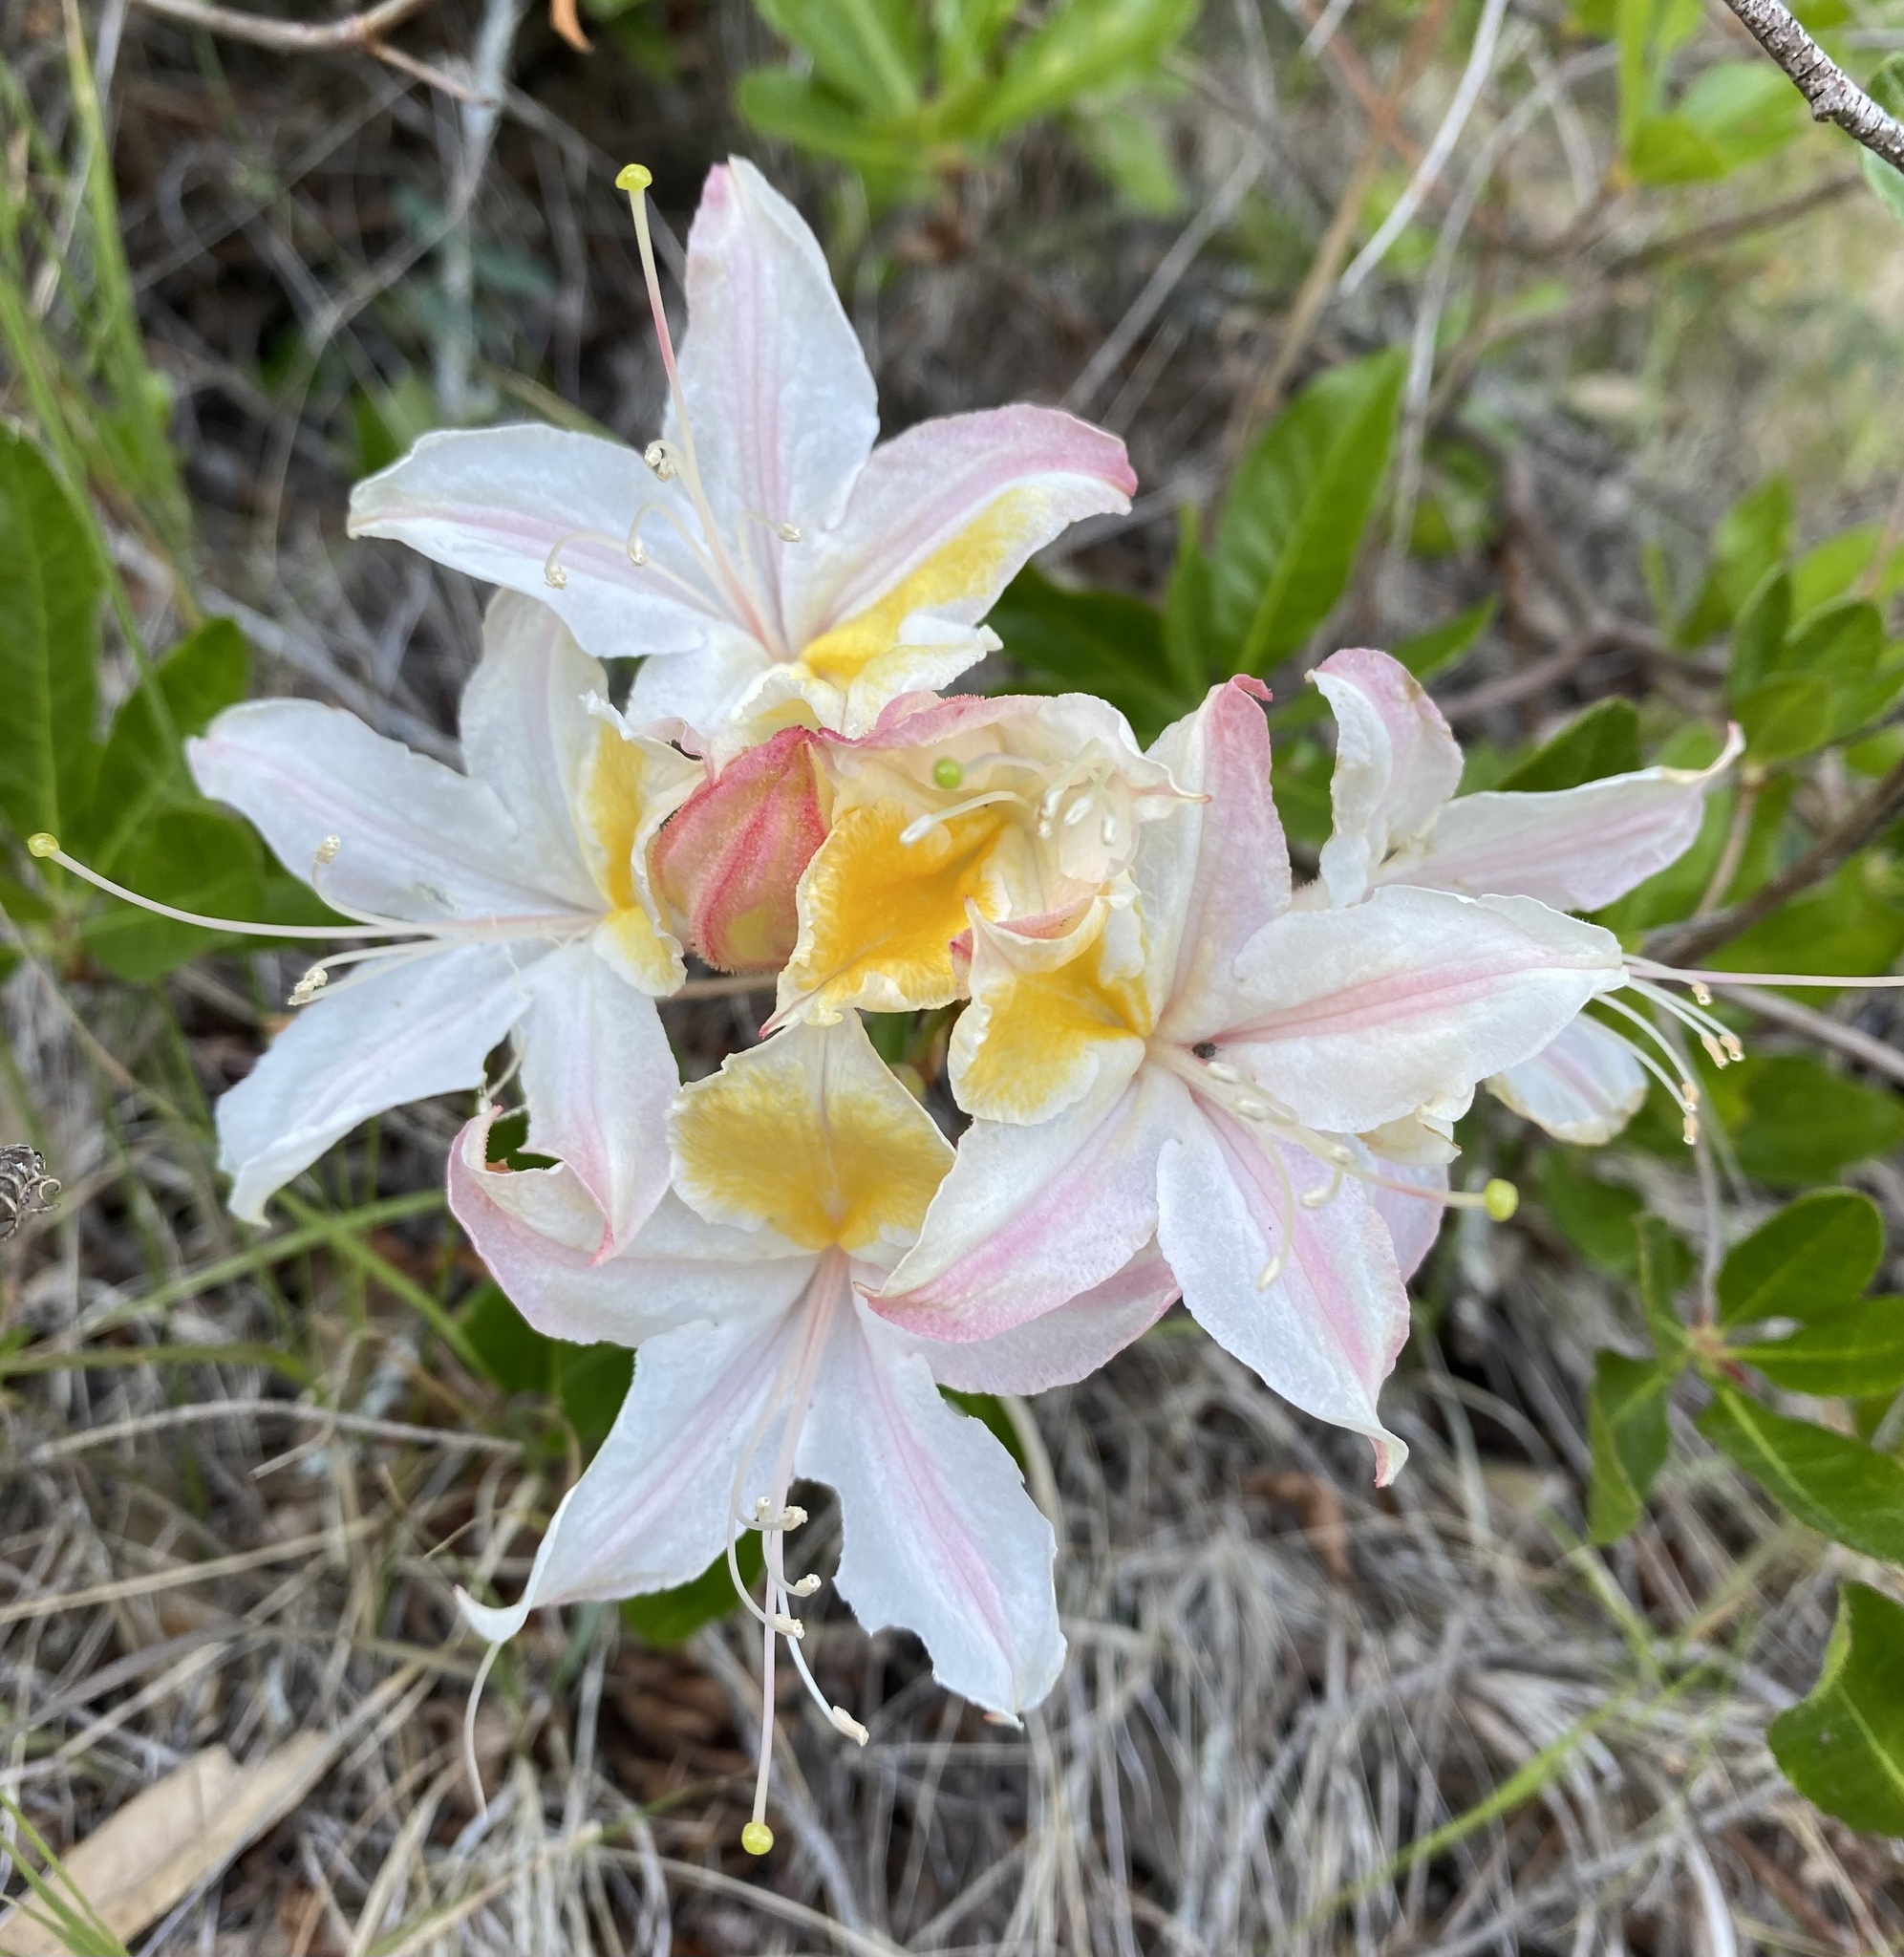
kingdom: Plantae
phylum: Tracheophyta
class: Magnoliopsida
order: Ericales
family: Ericaceae
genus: Rhododendron
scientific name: Rhododendron occidentale
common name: Western azalea
